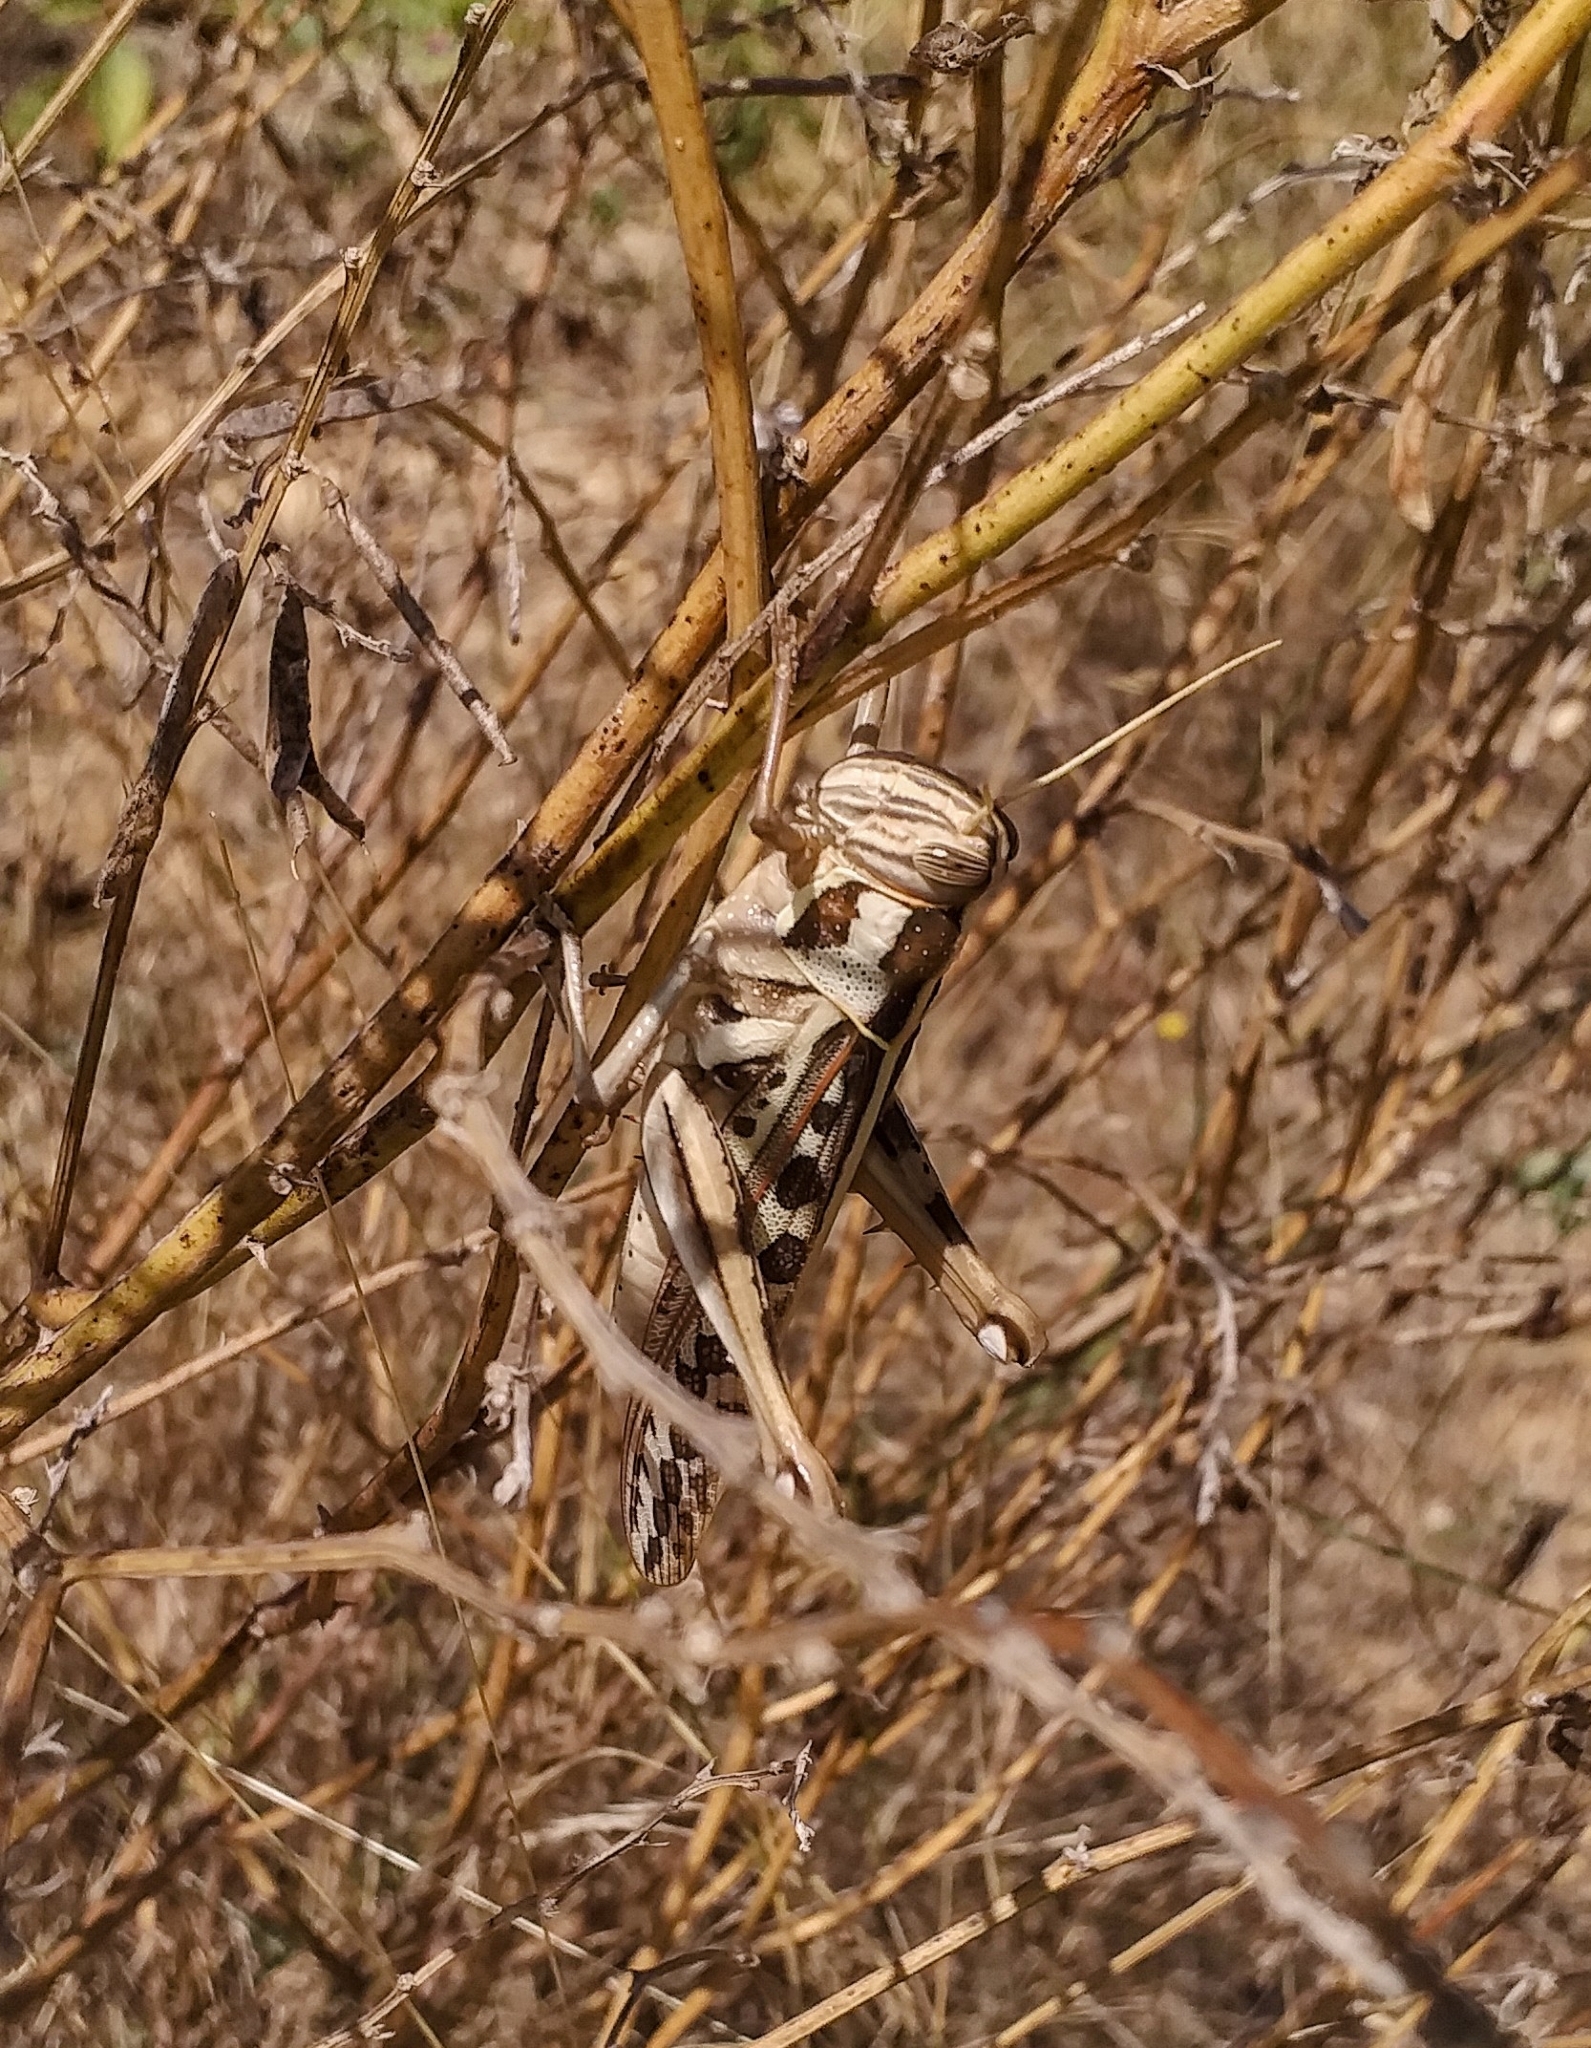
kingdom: Animalia
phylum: Arthropoda
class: Insecta
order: Orthoptera
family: Acrididae
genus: Cyrtacanthacris
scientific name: Cyrtacanthacris tatarica
